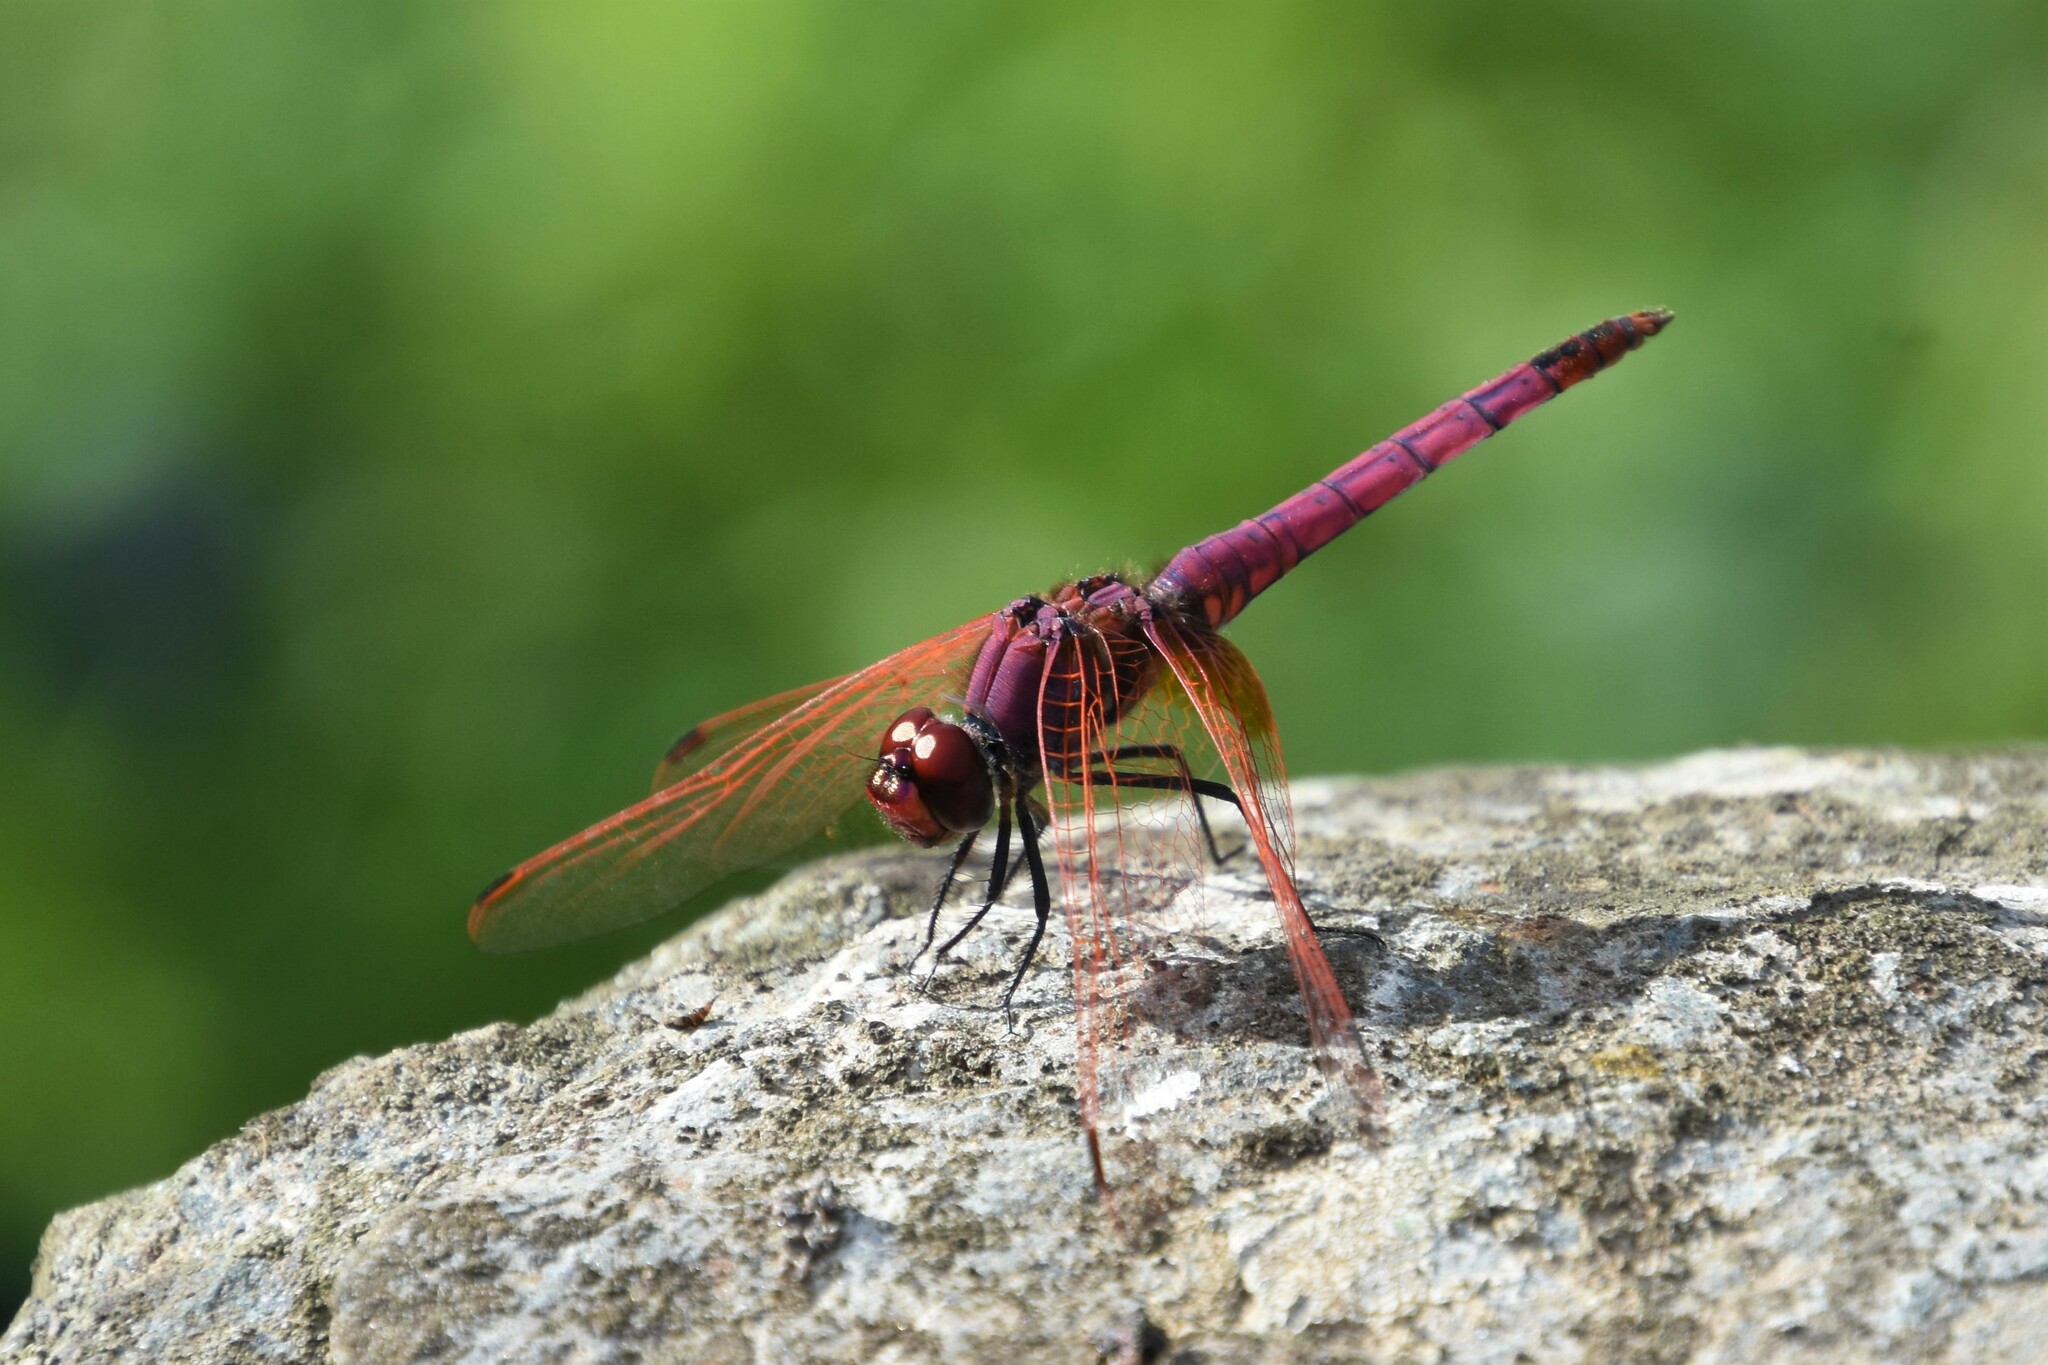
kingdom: Animalia
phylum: Arthropoda
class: Insecta
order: Odonata
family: Libellulidae
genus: Trithemis
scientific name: Trithemis annulata
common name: Violet dropwing
